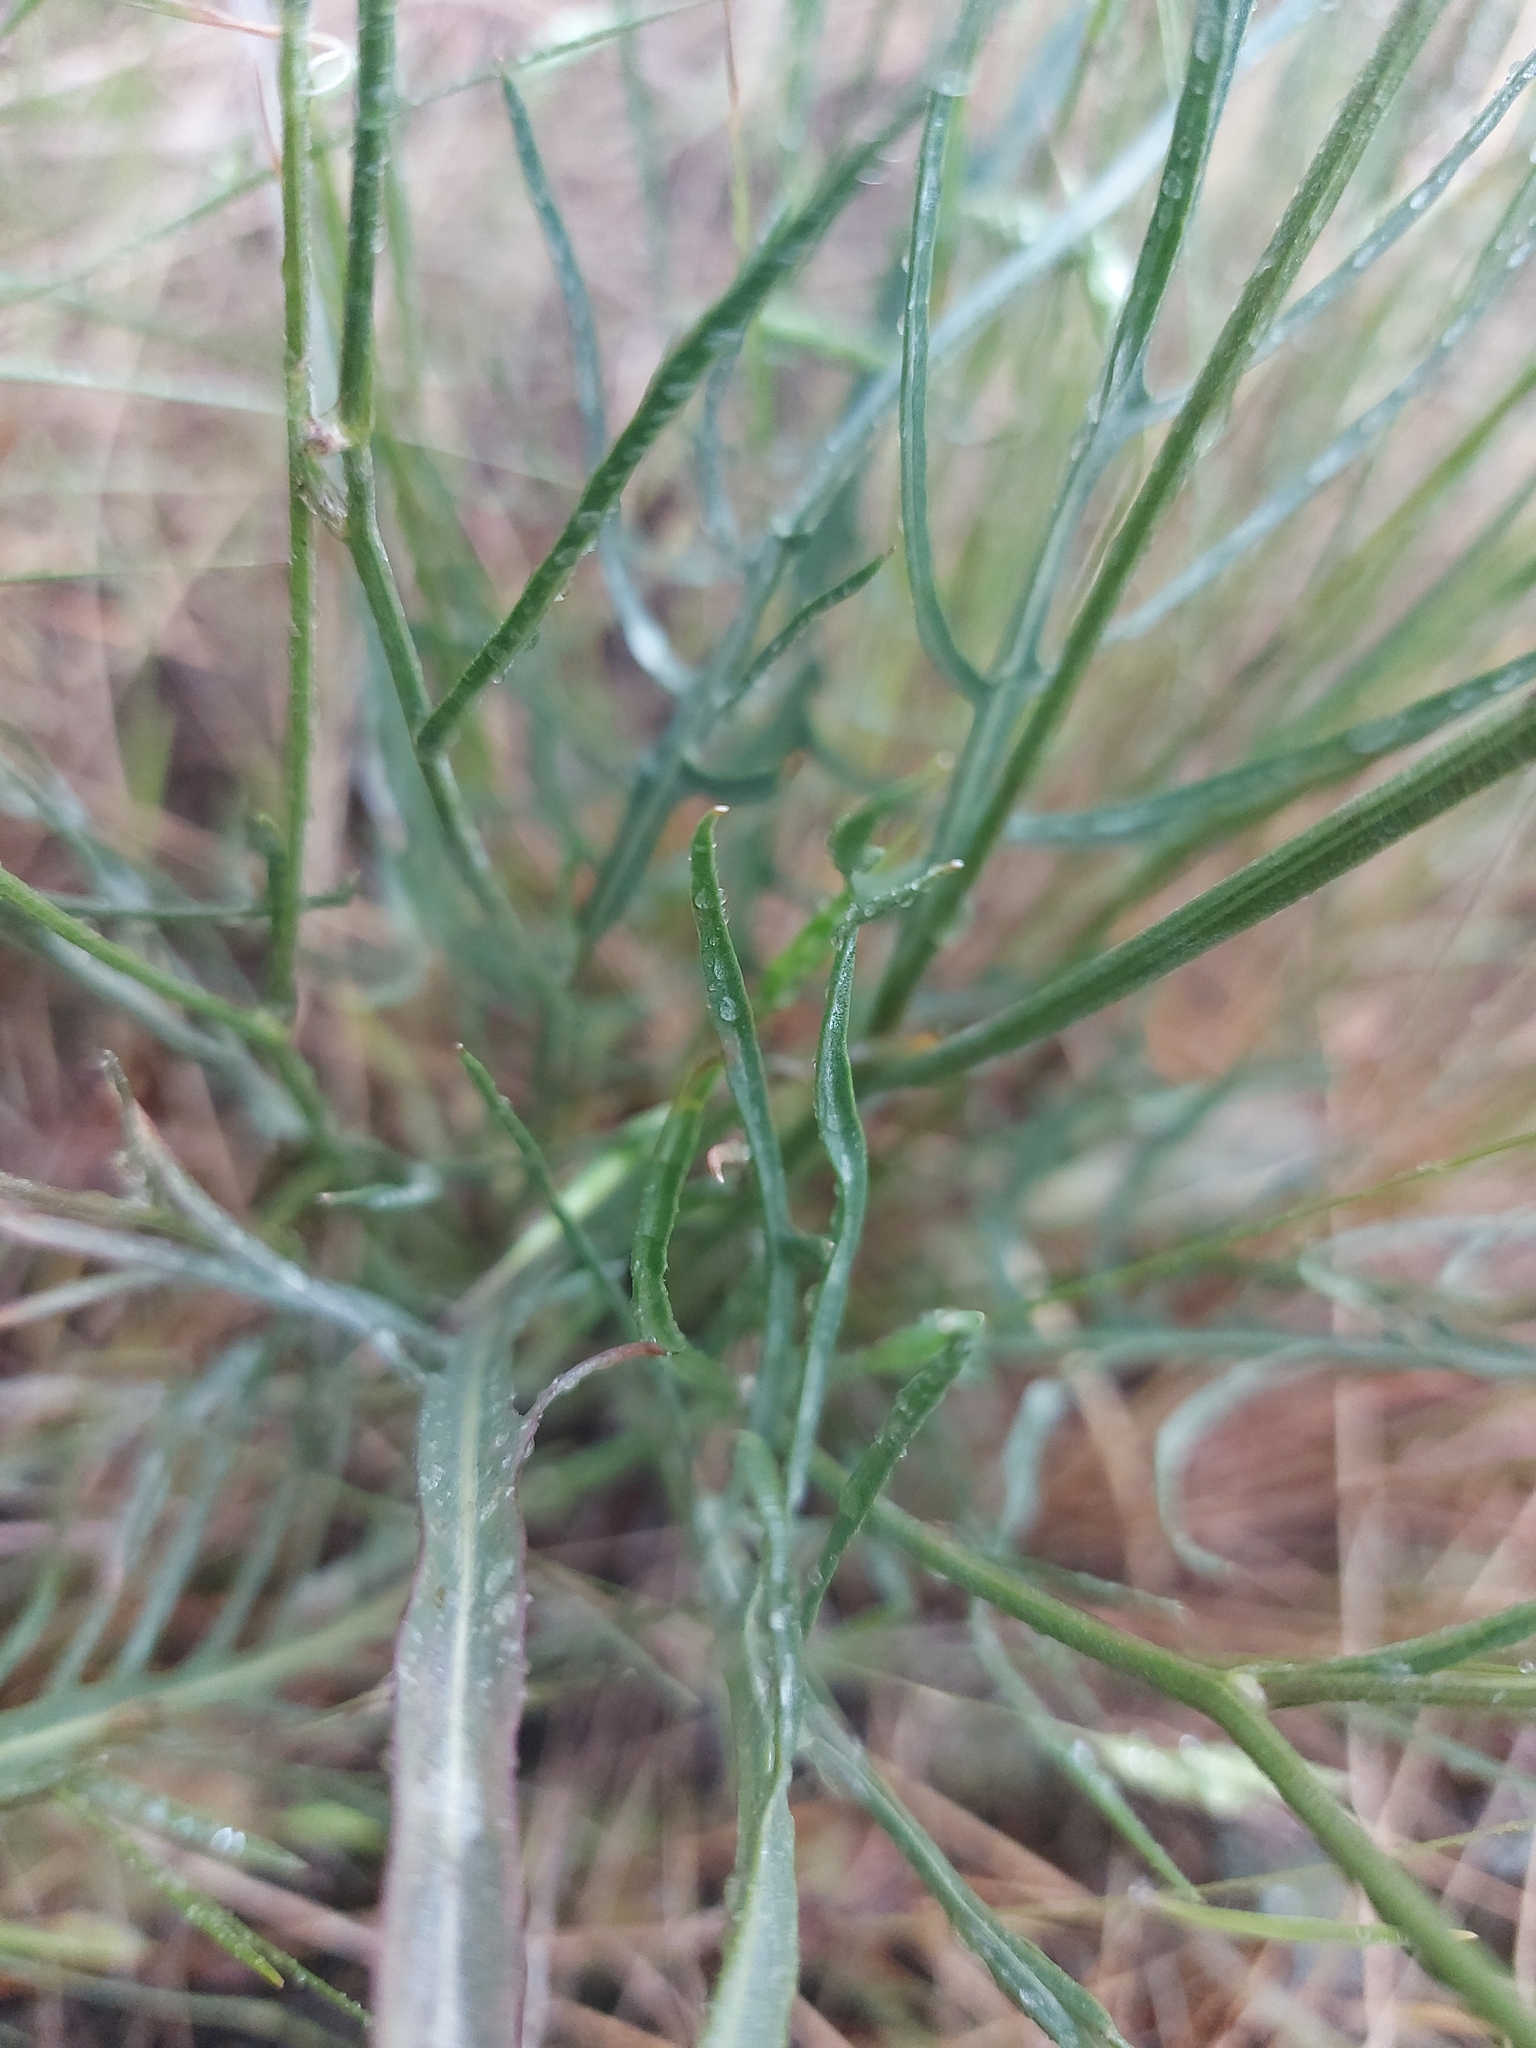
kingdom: Plantae
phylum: Tracheophyta
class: Magnoliopsida
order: Asterales
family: Asteraceae
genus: Crepis
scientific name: Crepis atribarba
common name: Dark hawk's-beard
